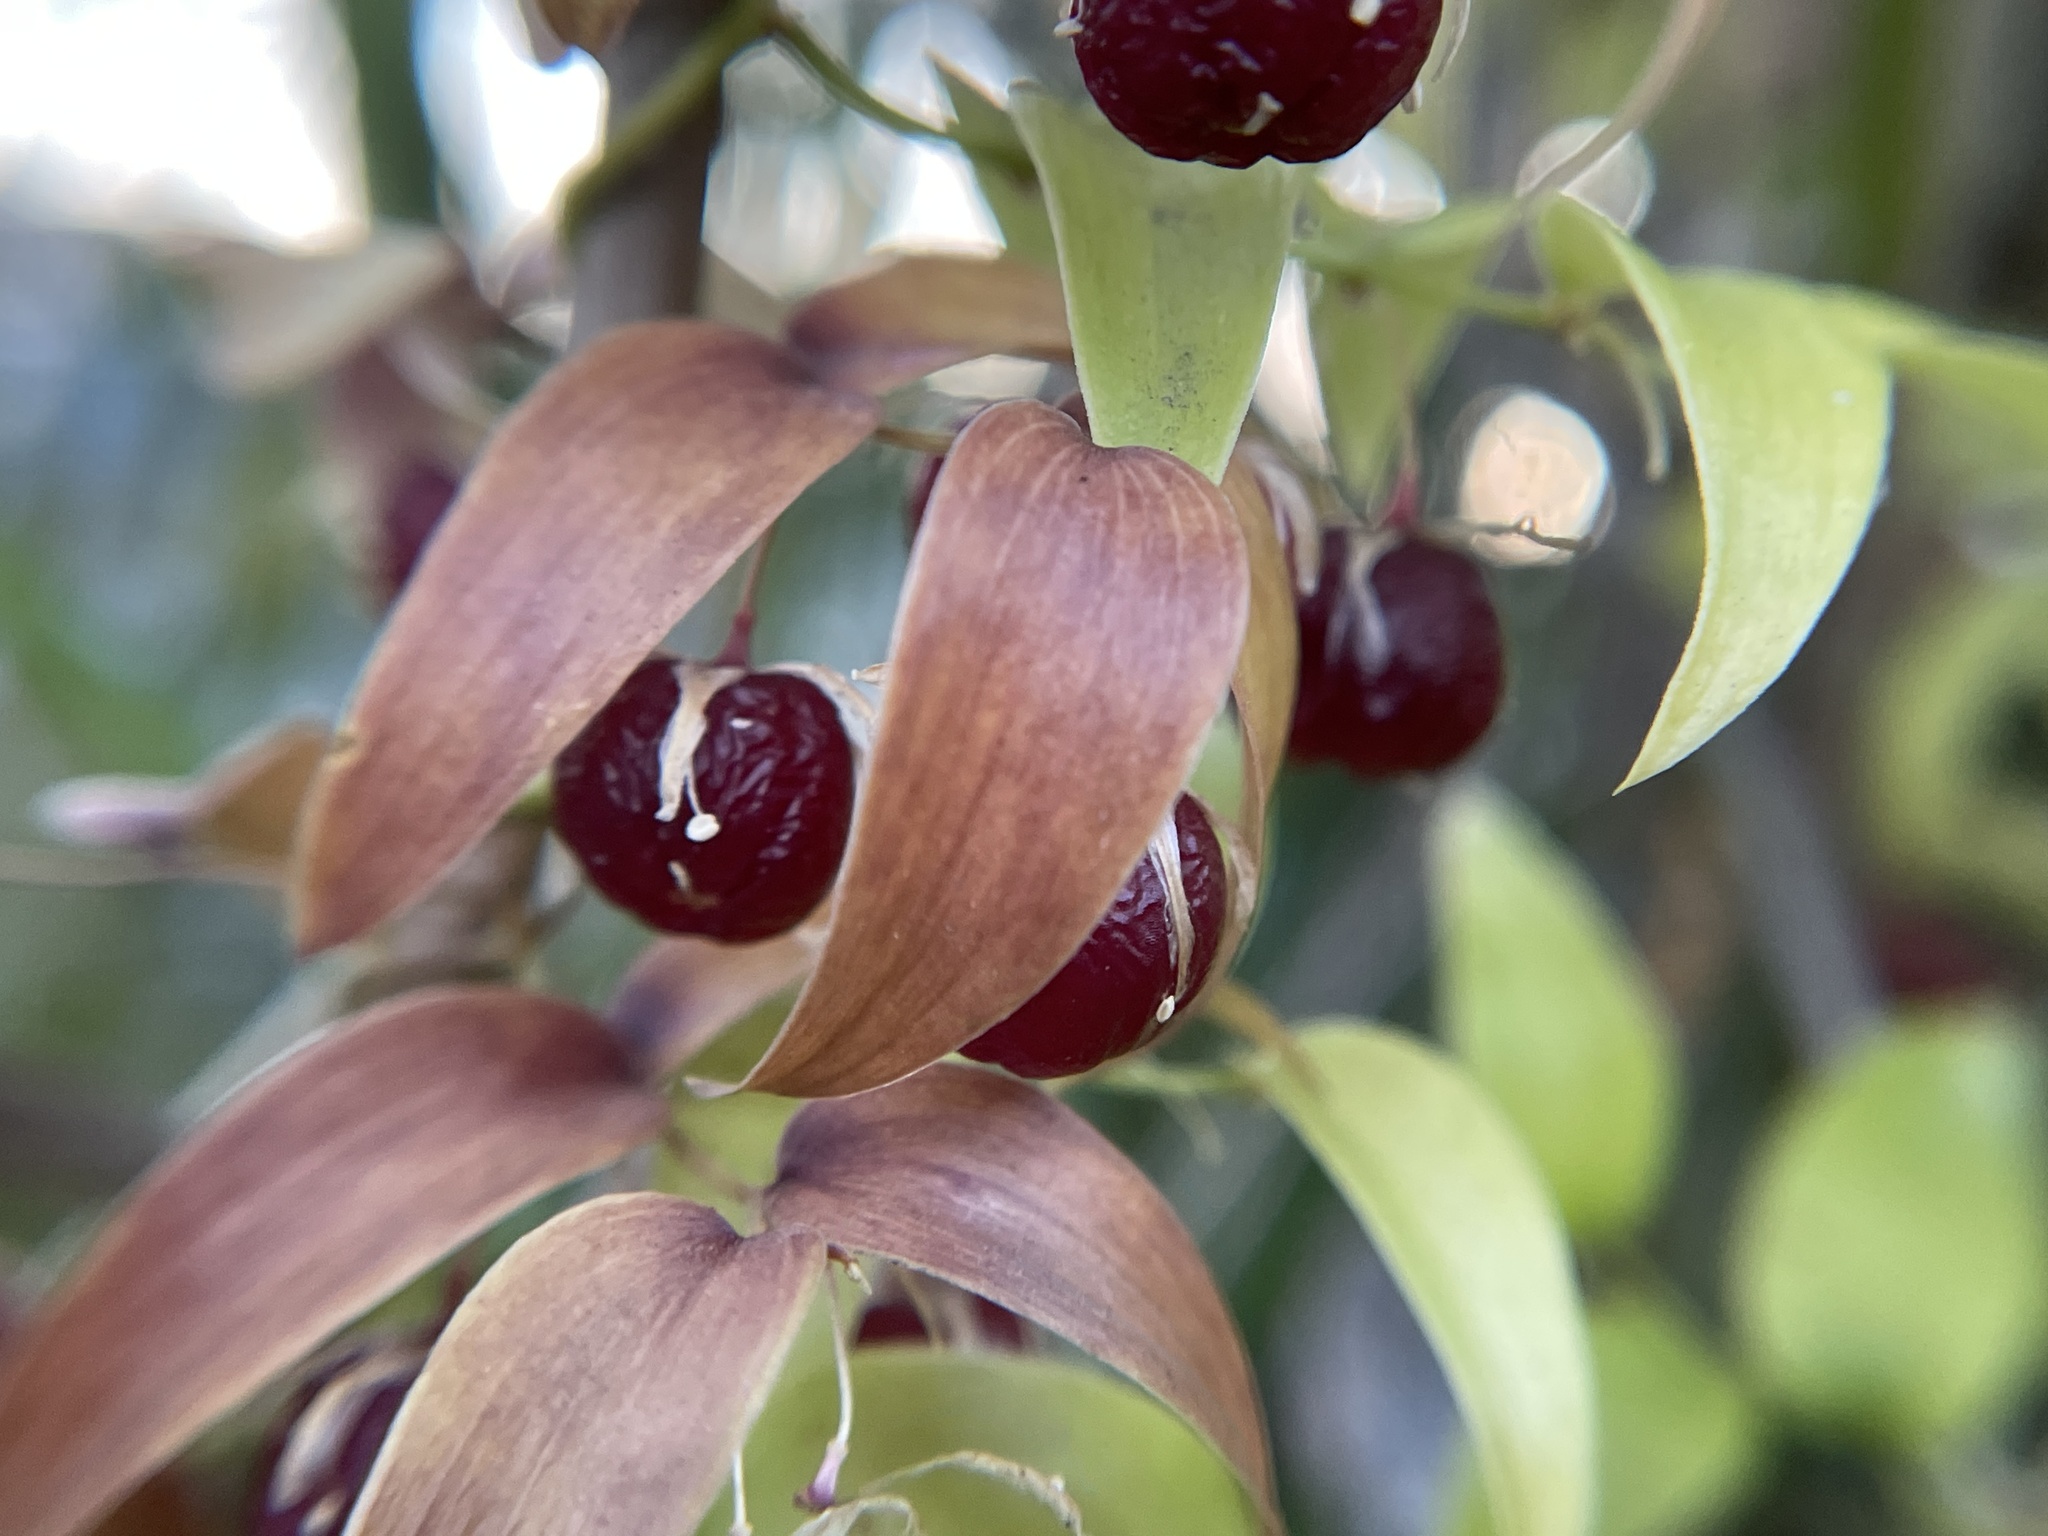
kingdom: Plantae
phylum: Tracheophyta
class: Liliopsida
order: Asparagales
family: Asparagaceae
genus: Asparagus
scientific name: Asparagus asparagoides
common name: African asparagus fern
